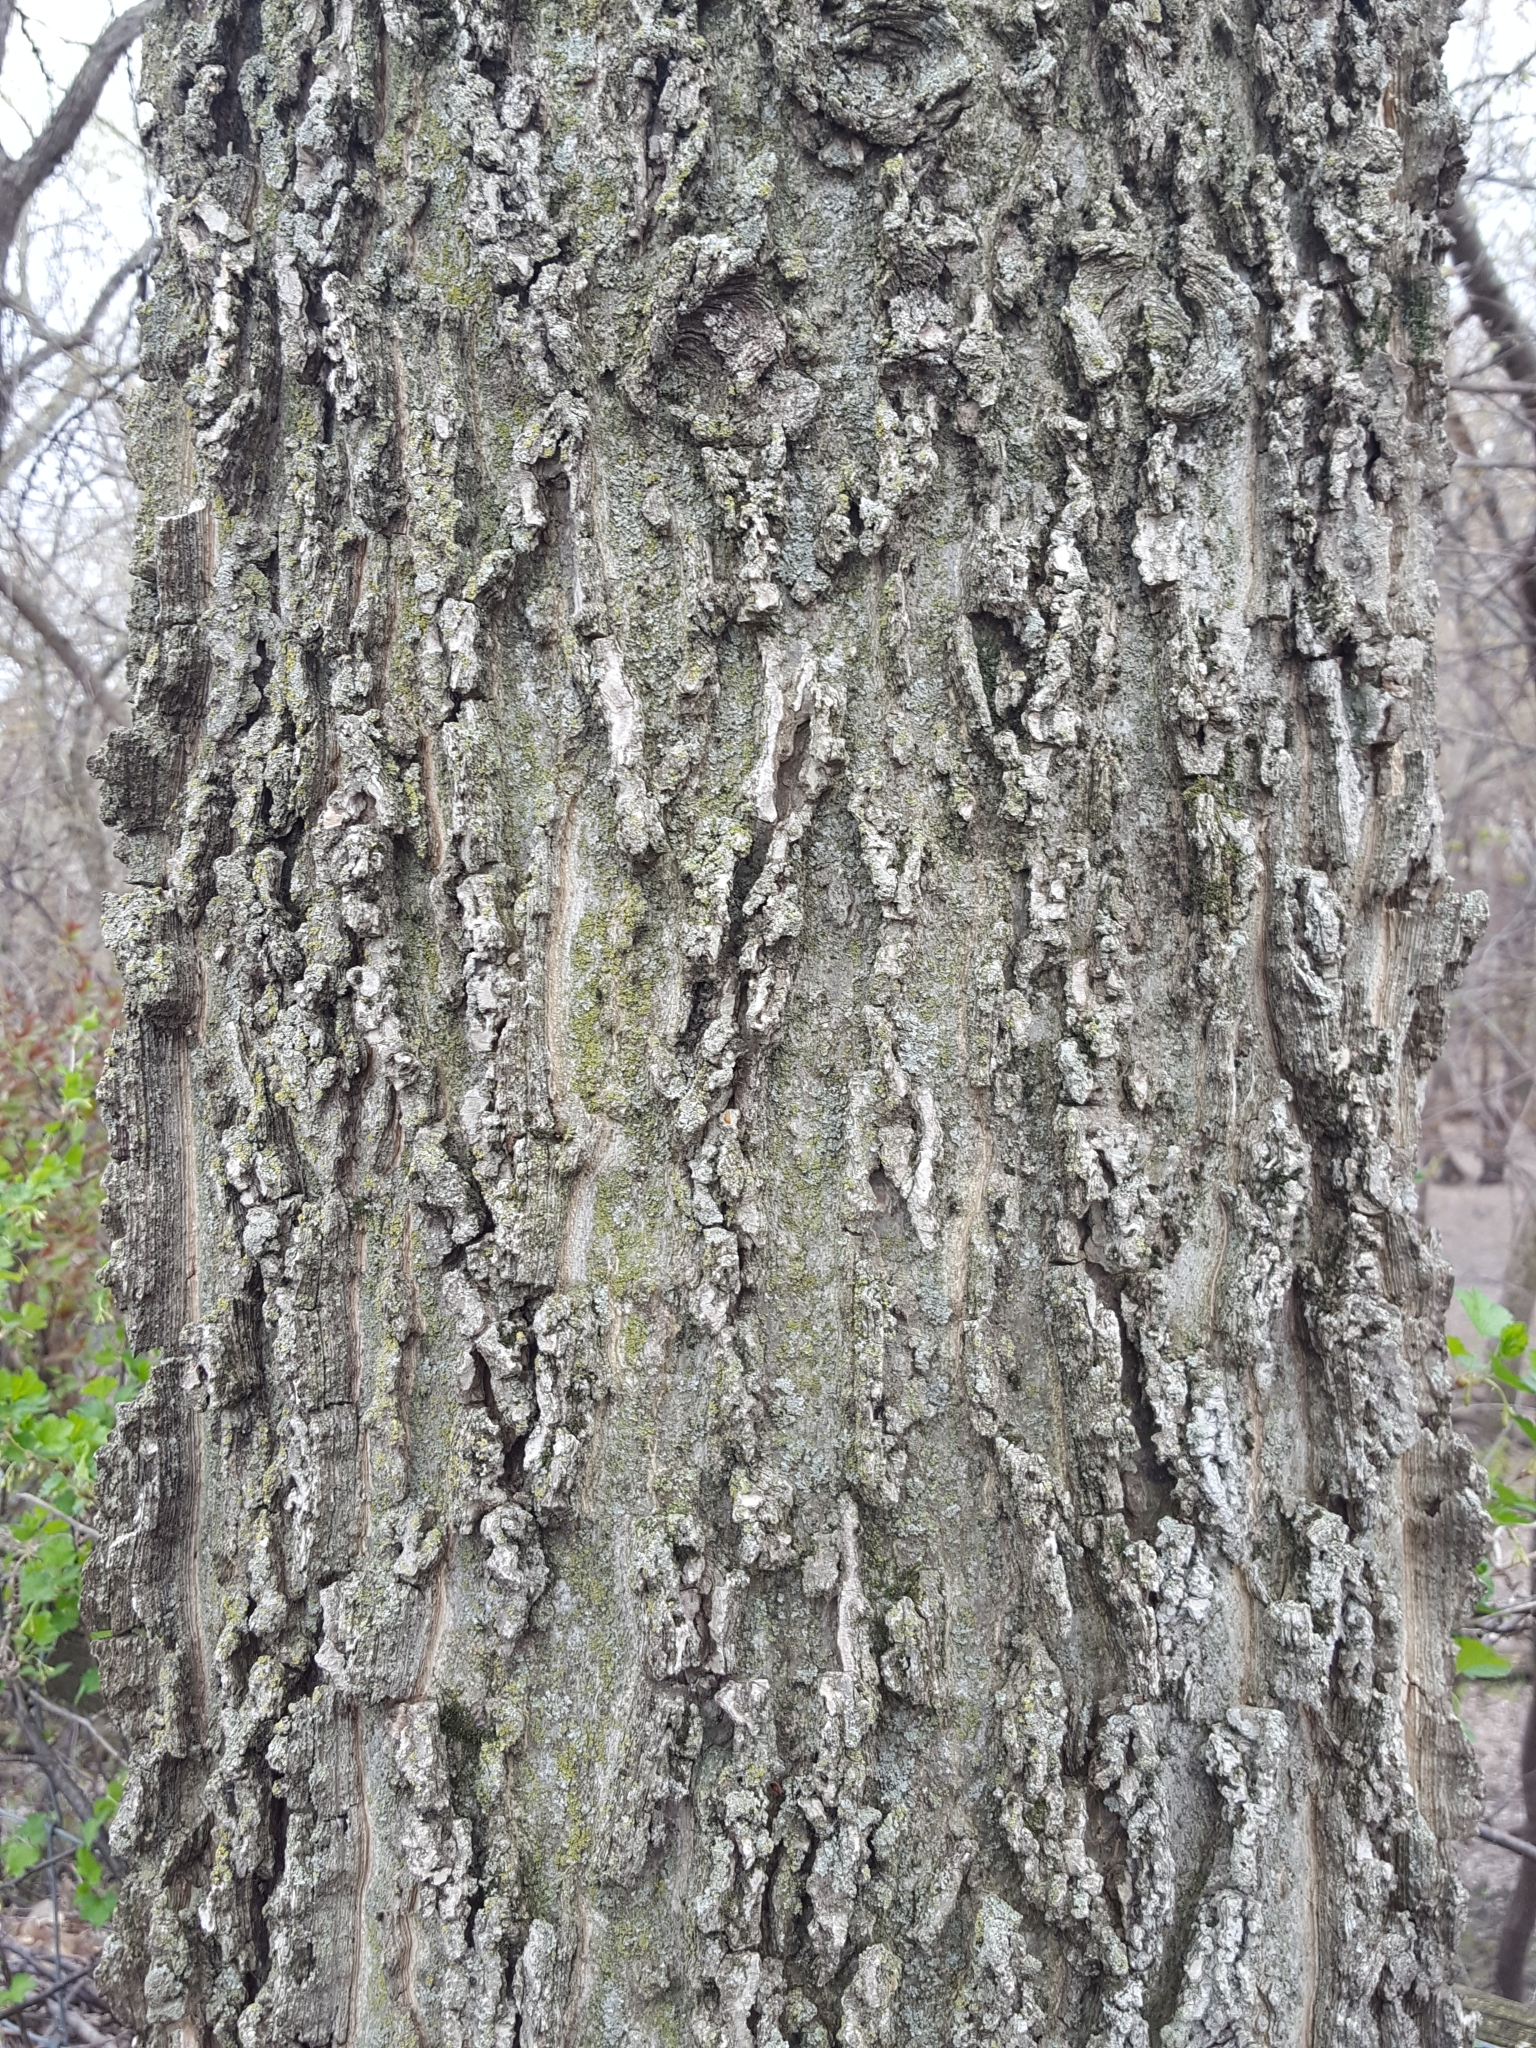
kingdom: Plantae
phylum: Tracheophyta
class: Magnoliopsida
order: Rosales
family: Cannabaceae
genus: Celtis
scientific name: Celtis occidentalis
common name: Common hackberry
